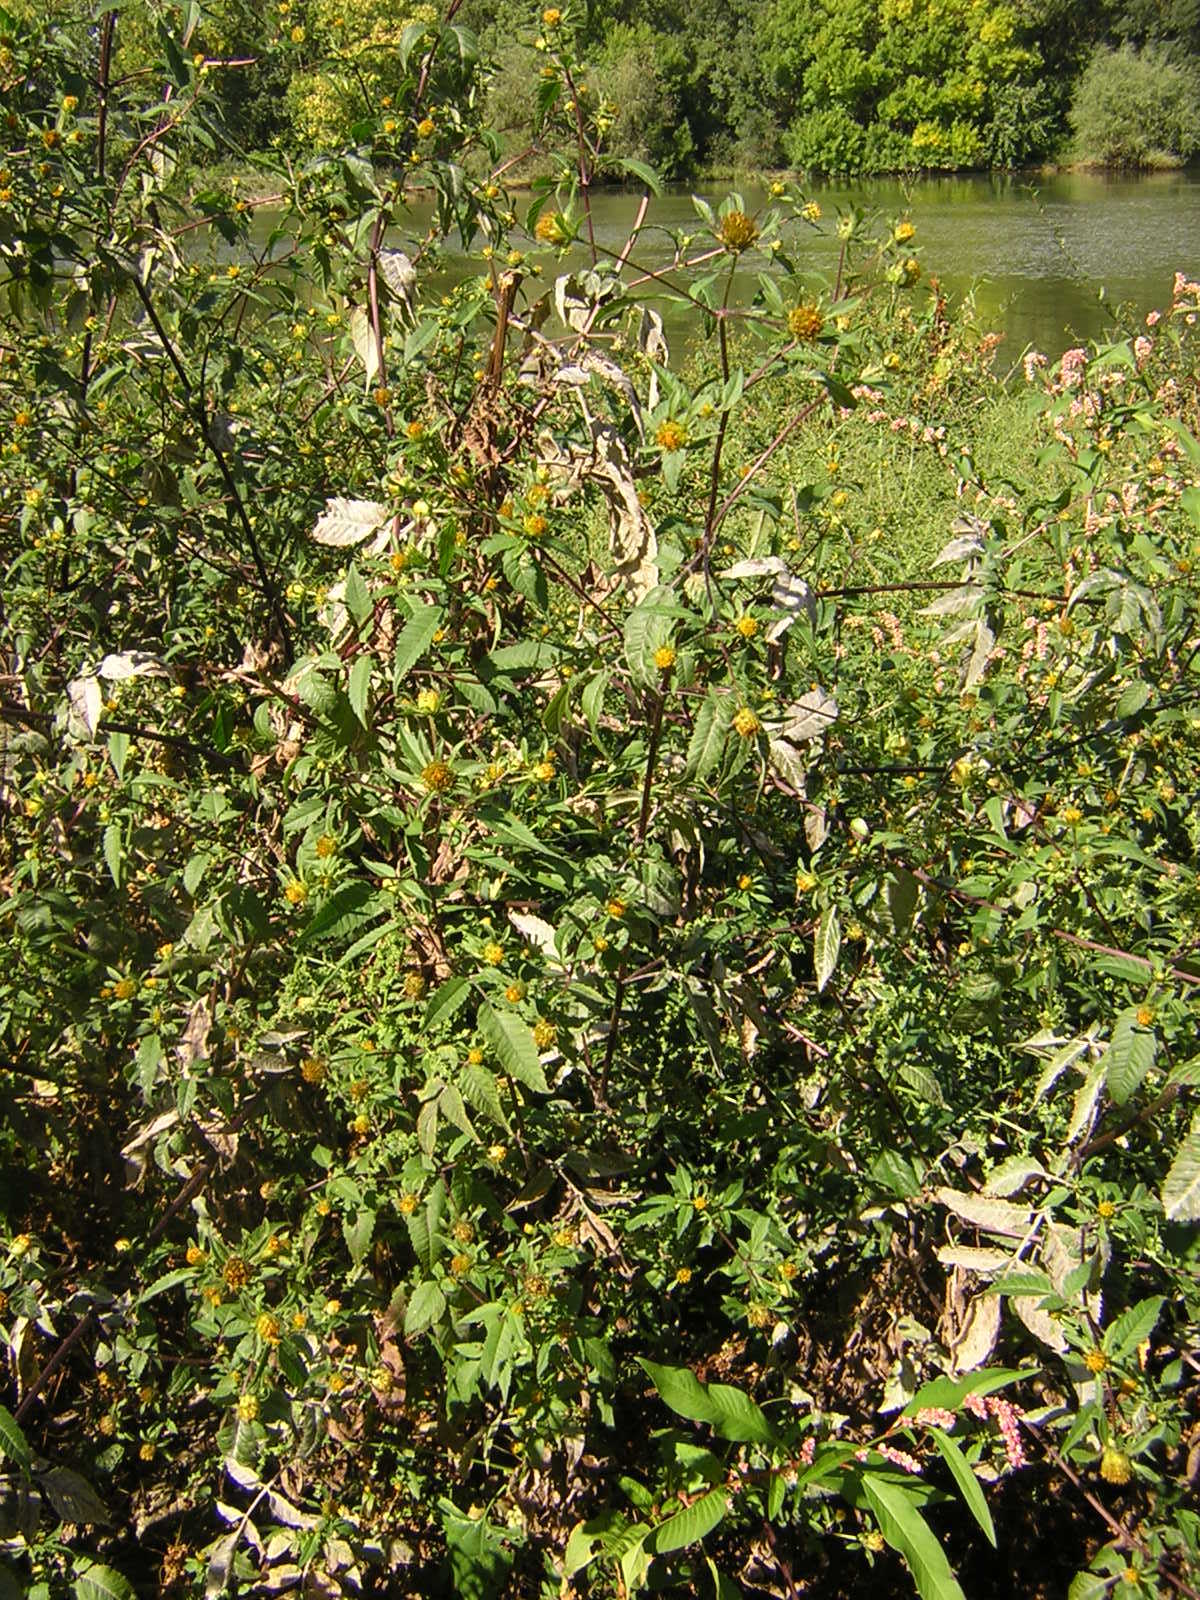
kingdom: Plantae
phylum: Tracheophyta
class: Magnoliopsida
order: Asterales
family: Asteraceae
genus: Bidens
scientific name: Bidens frondosa
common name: Beggarticks
